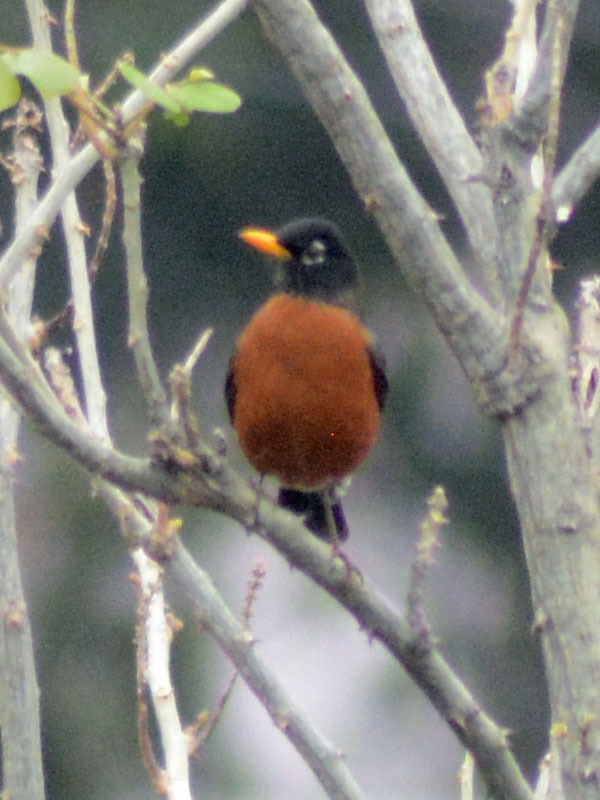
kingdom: Animalia
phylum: Chordata
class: Aves
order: Passeriformes
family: Turdidae
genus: Turdus
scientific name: Turdus migratorius
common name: American robin
